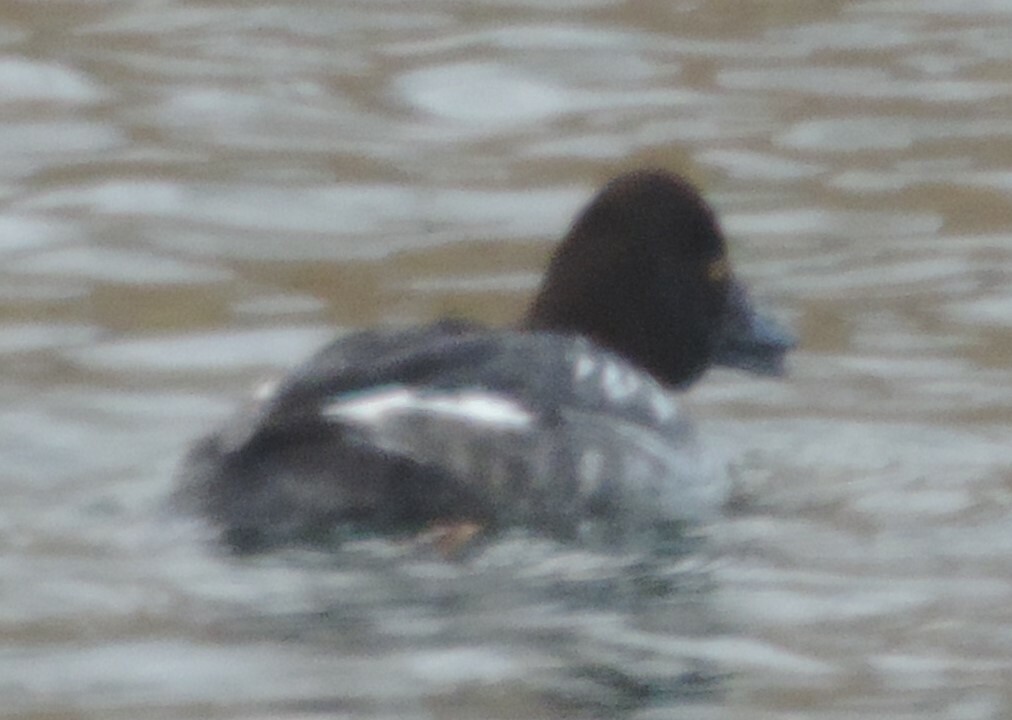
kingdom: Animalia
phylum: Chordata
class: Aves
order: Anseriformes
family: Anatidae
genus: Bucephala
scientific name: Bucephala clangula
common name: Common goldeneye
